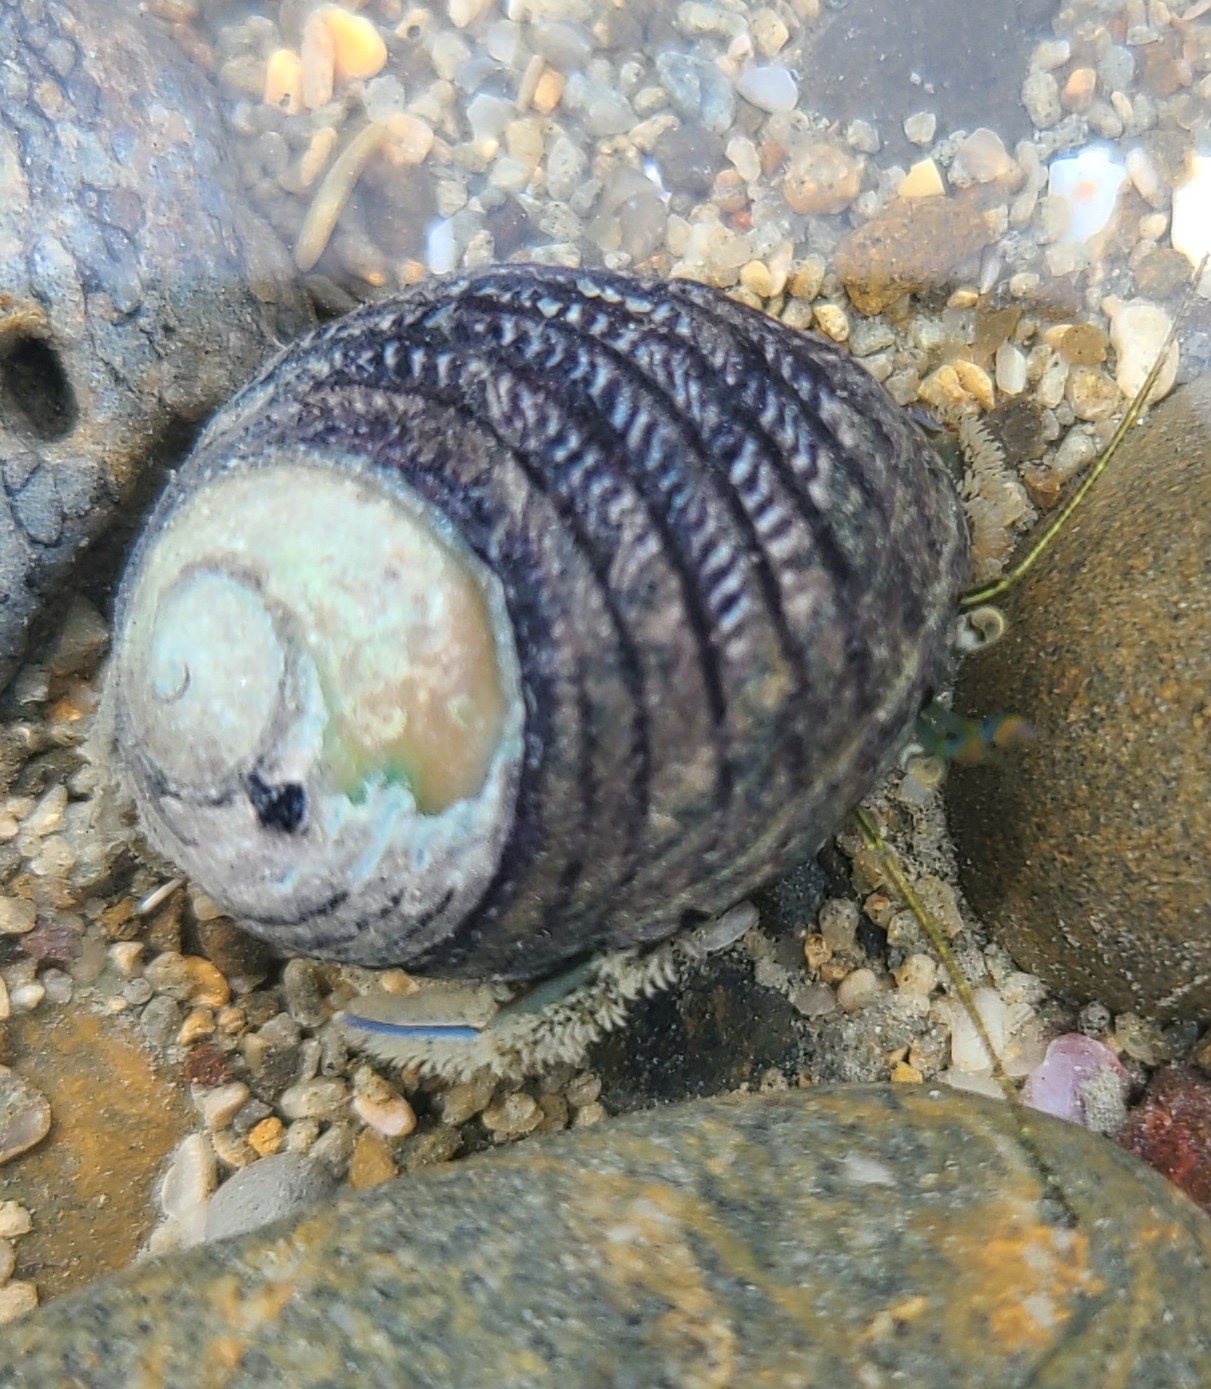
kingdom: Animalia
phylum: Arthropoda
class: Malacostraca
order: Decapoda
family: Paguridae
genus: Pagurus
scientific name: Pagurus novizealandiae
